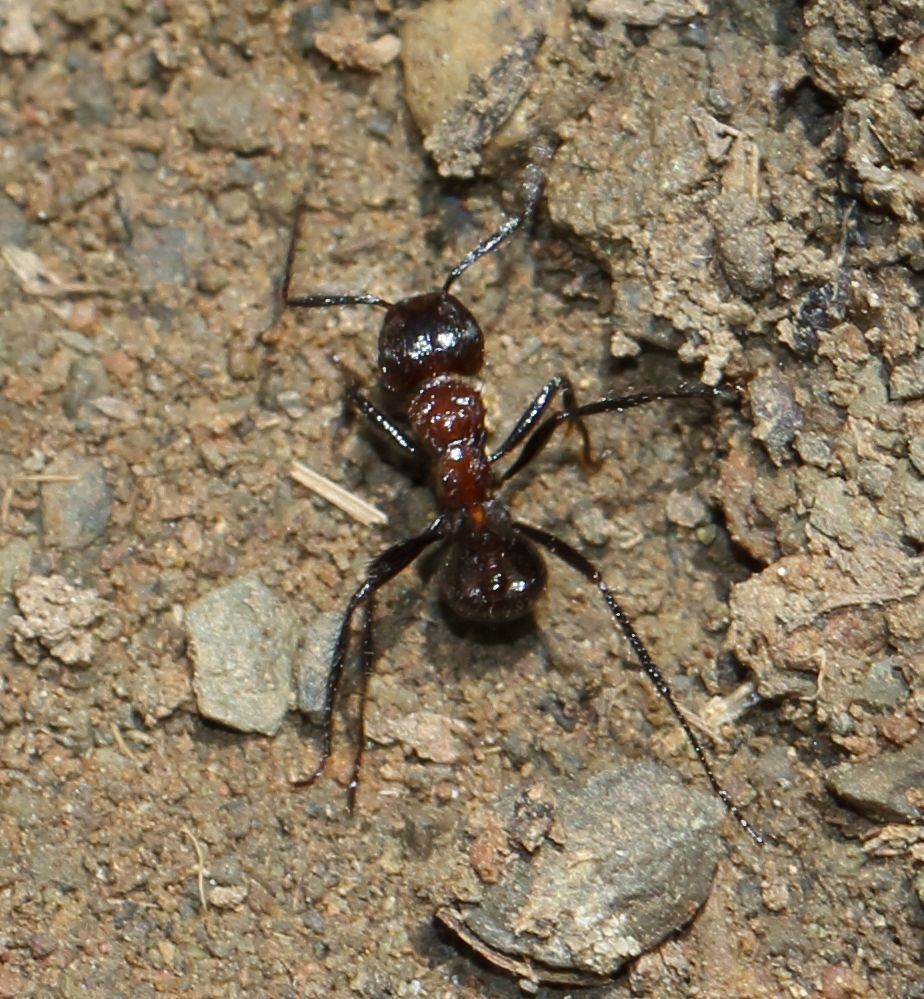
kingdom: Animalia
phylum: Arthropoda
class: Insecta
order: Hymenoptera
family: Formicidae
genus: Myrmicaria
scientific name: Myrmicaria natalensis
